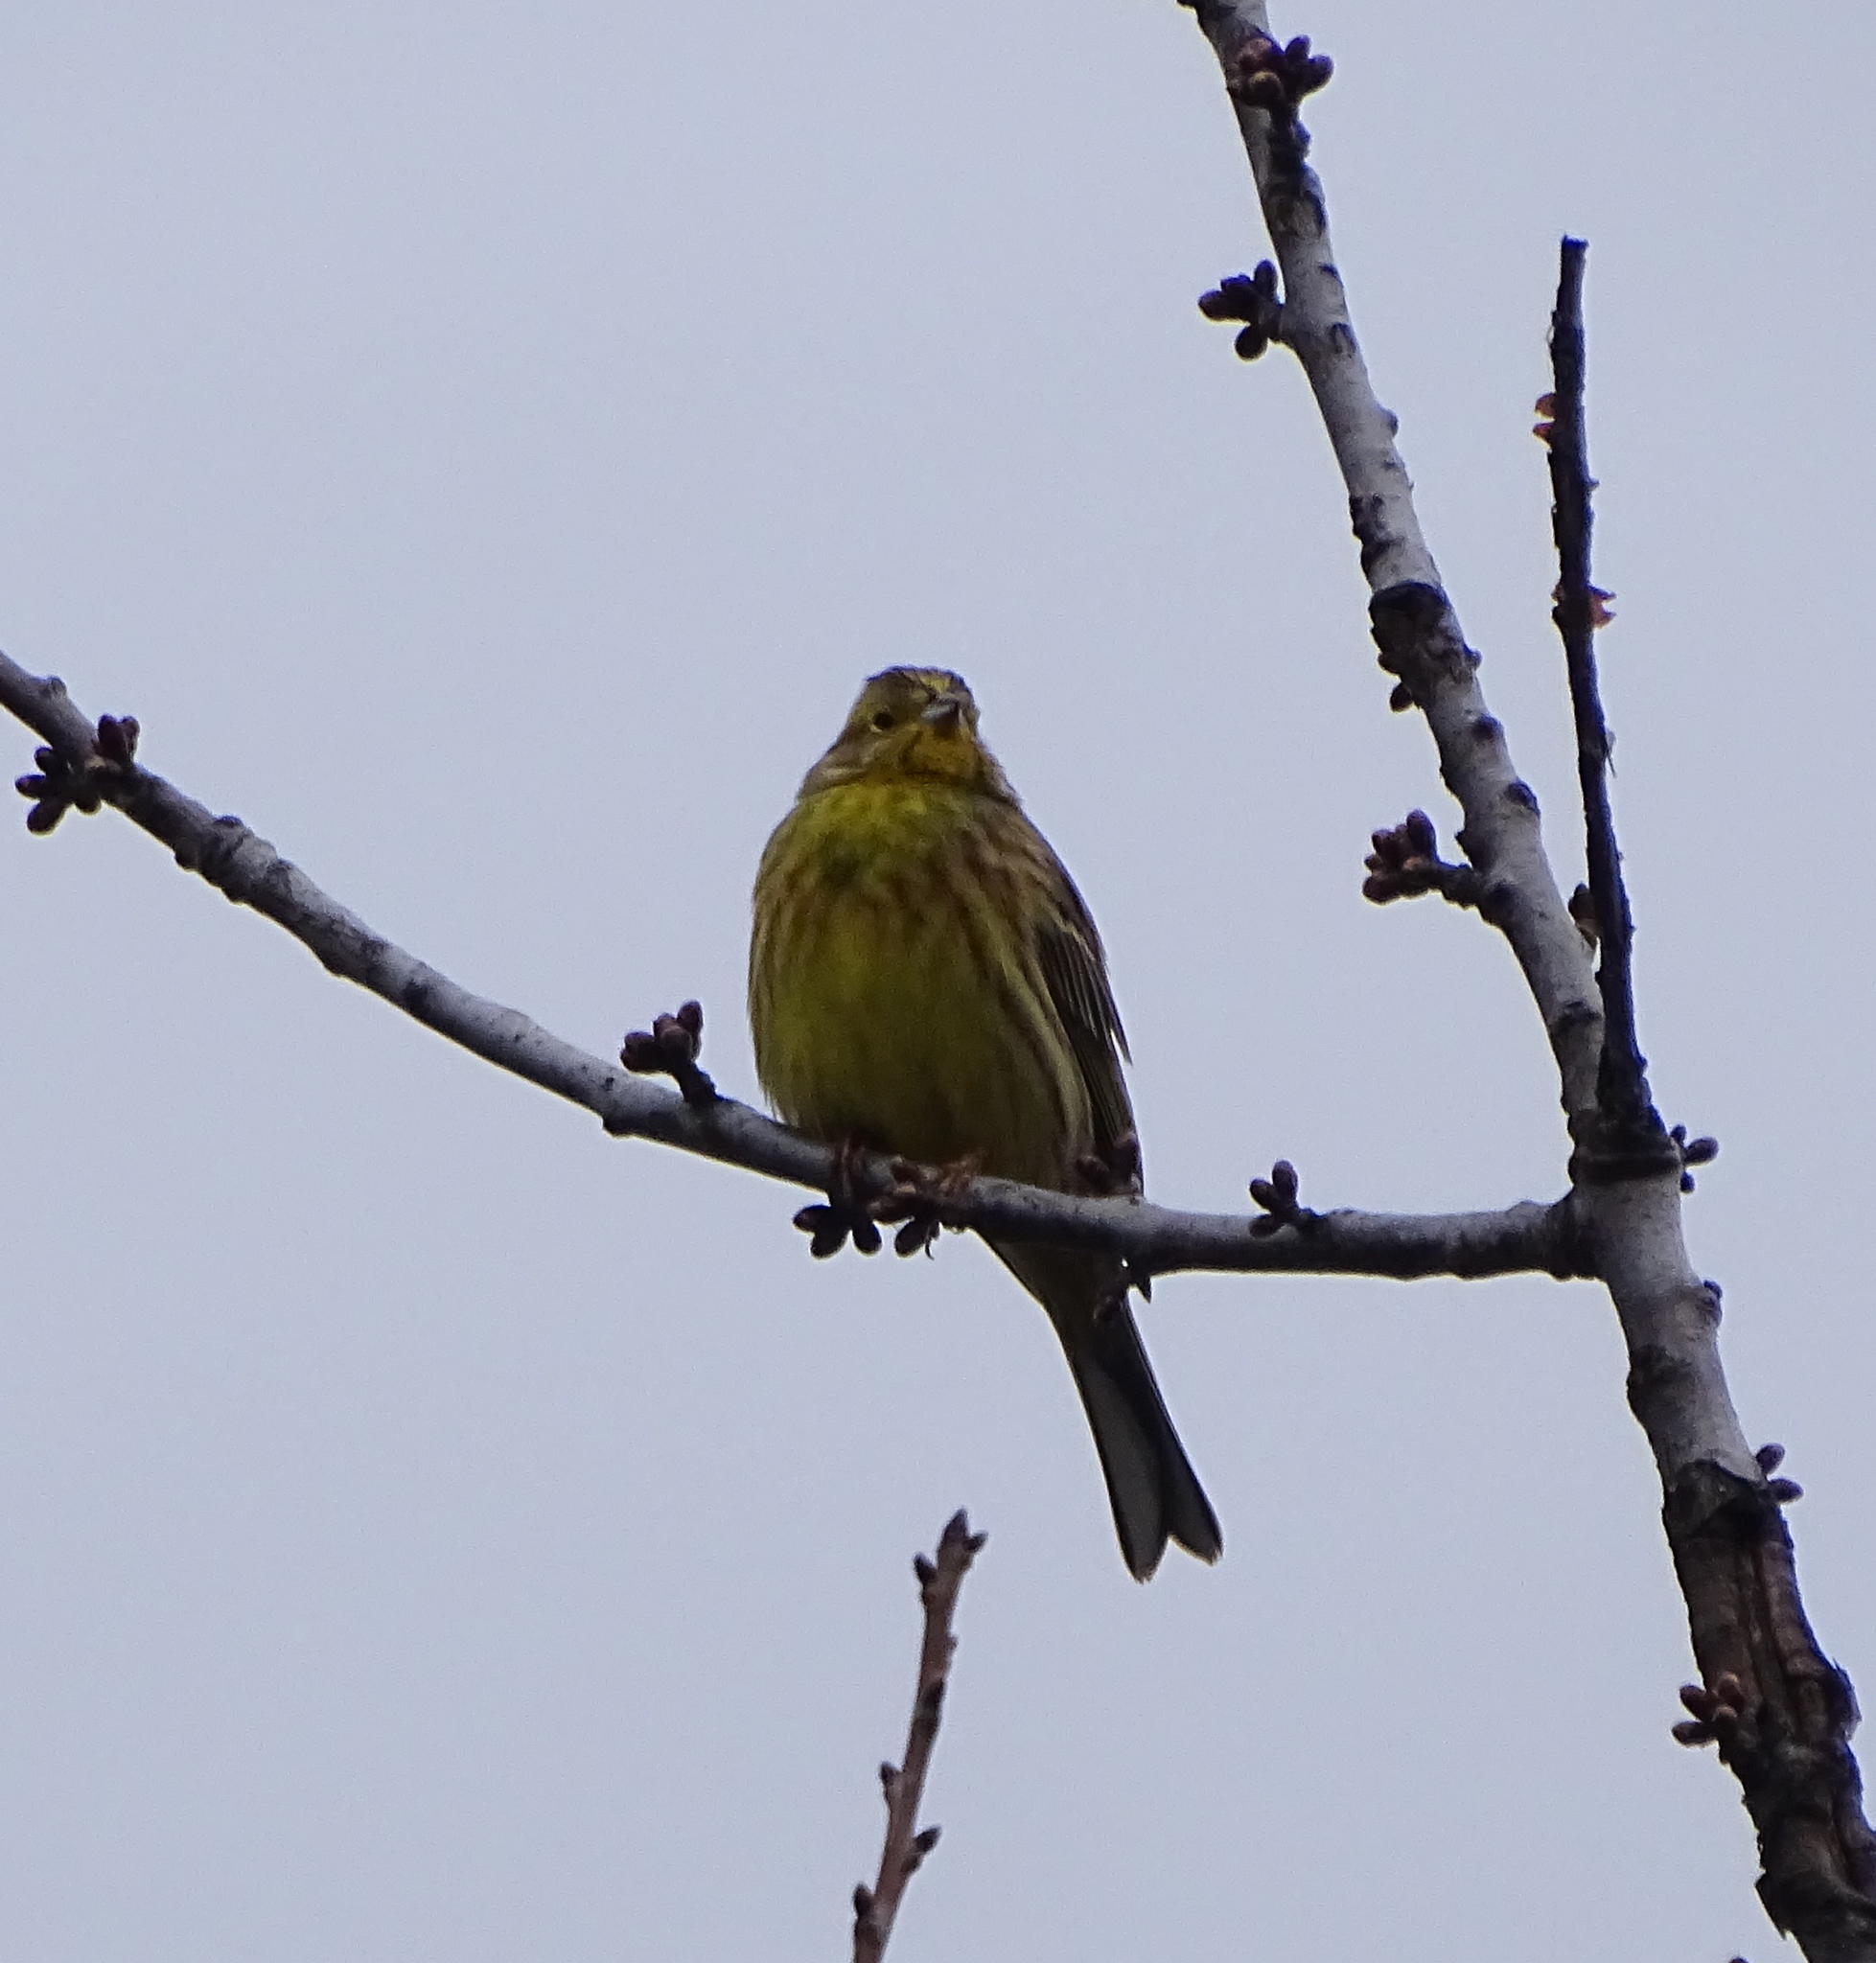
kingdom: Animalia
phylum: Chordata
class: Aves
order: Passeriformes
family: Emberizidae
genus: Emberiza
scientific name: Emberiza citrinella
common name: Yellowhammer
